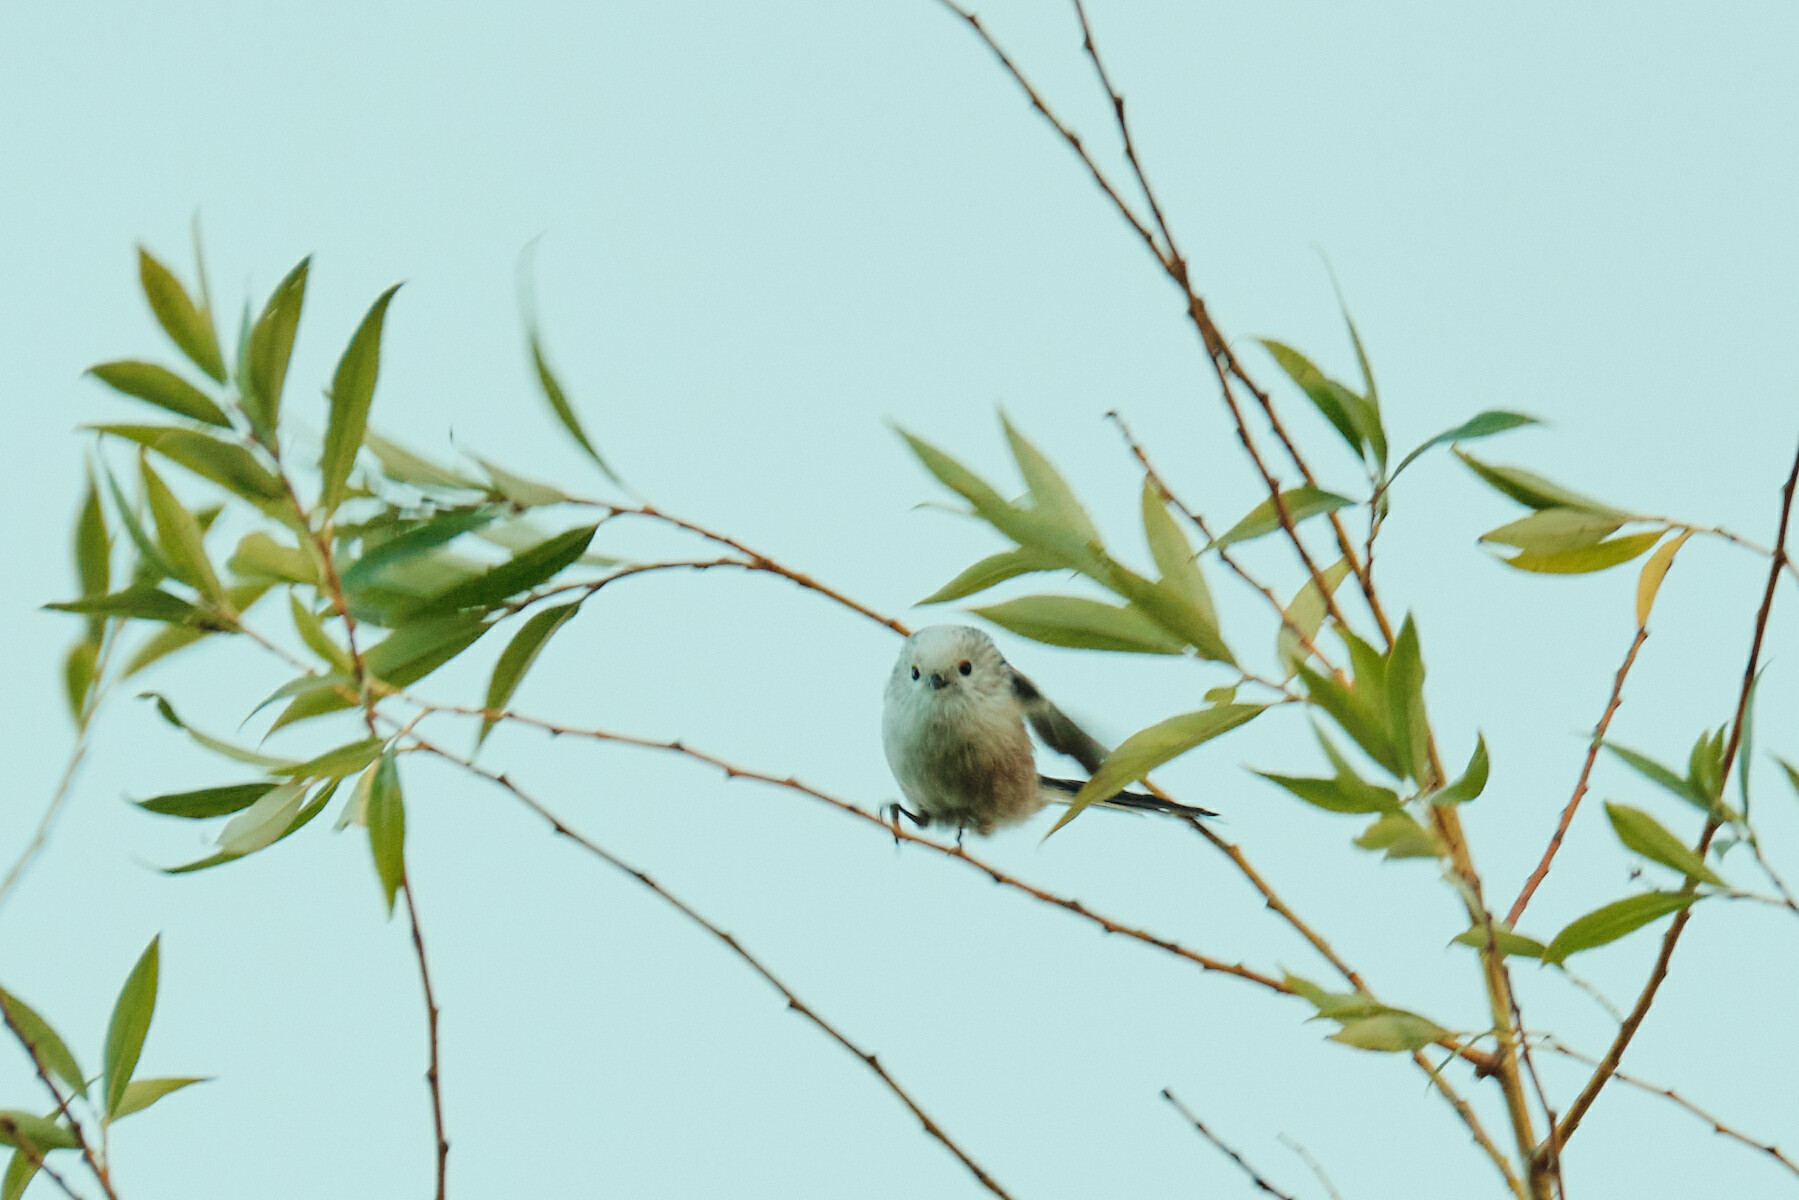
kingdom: Animalia
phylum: Chordata
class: Aves
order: Passeriformes
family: Aegithalidae
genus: Aegithalos
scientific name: Aegithalos caudatus
